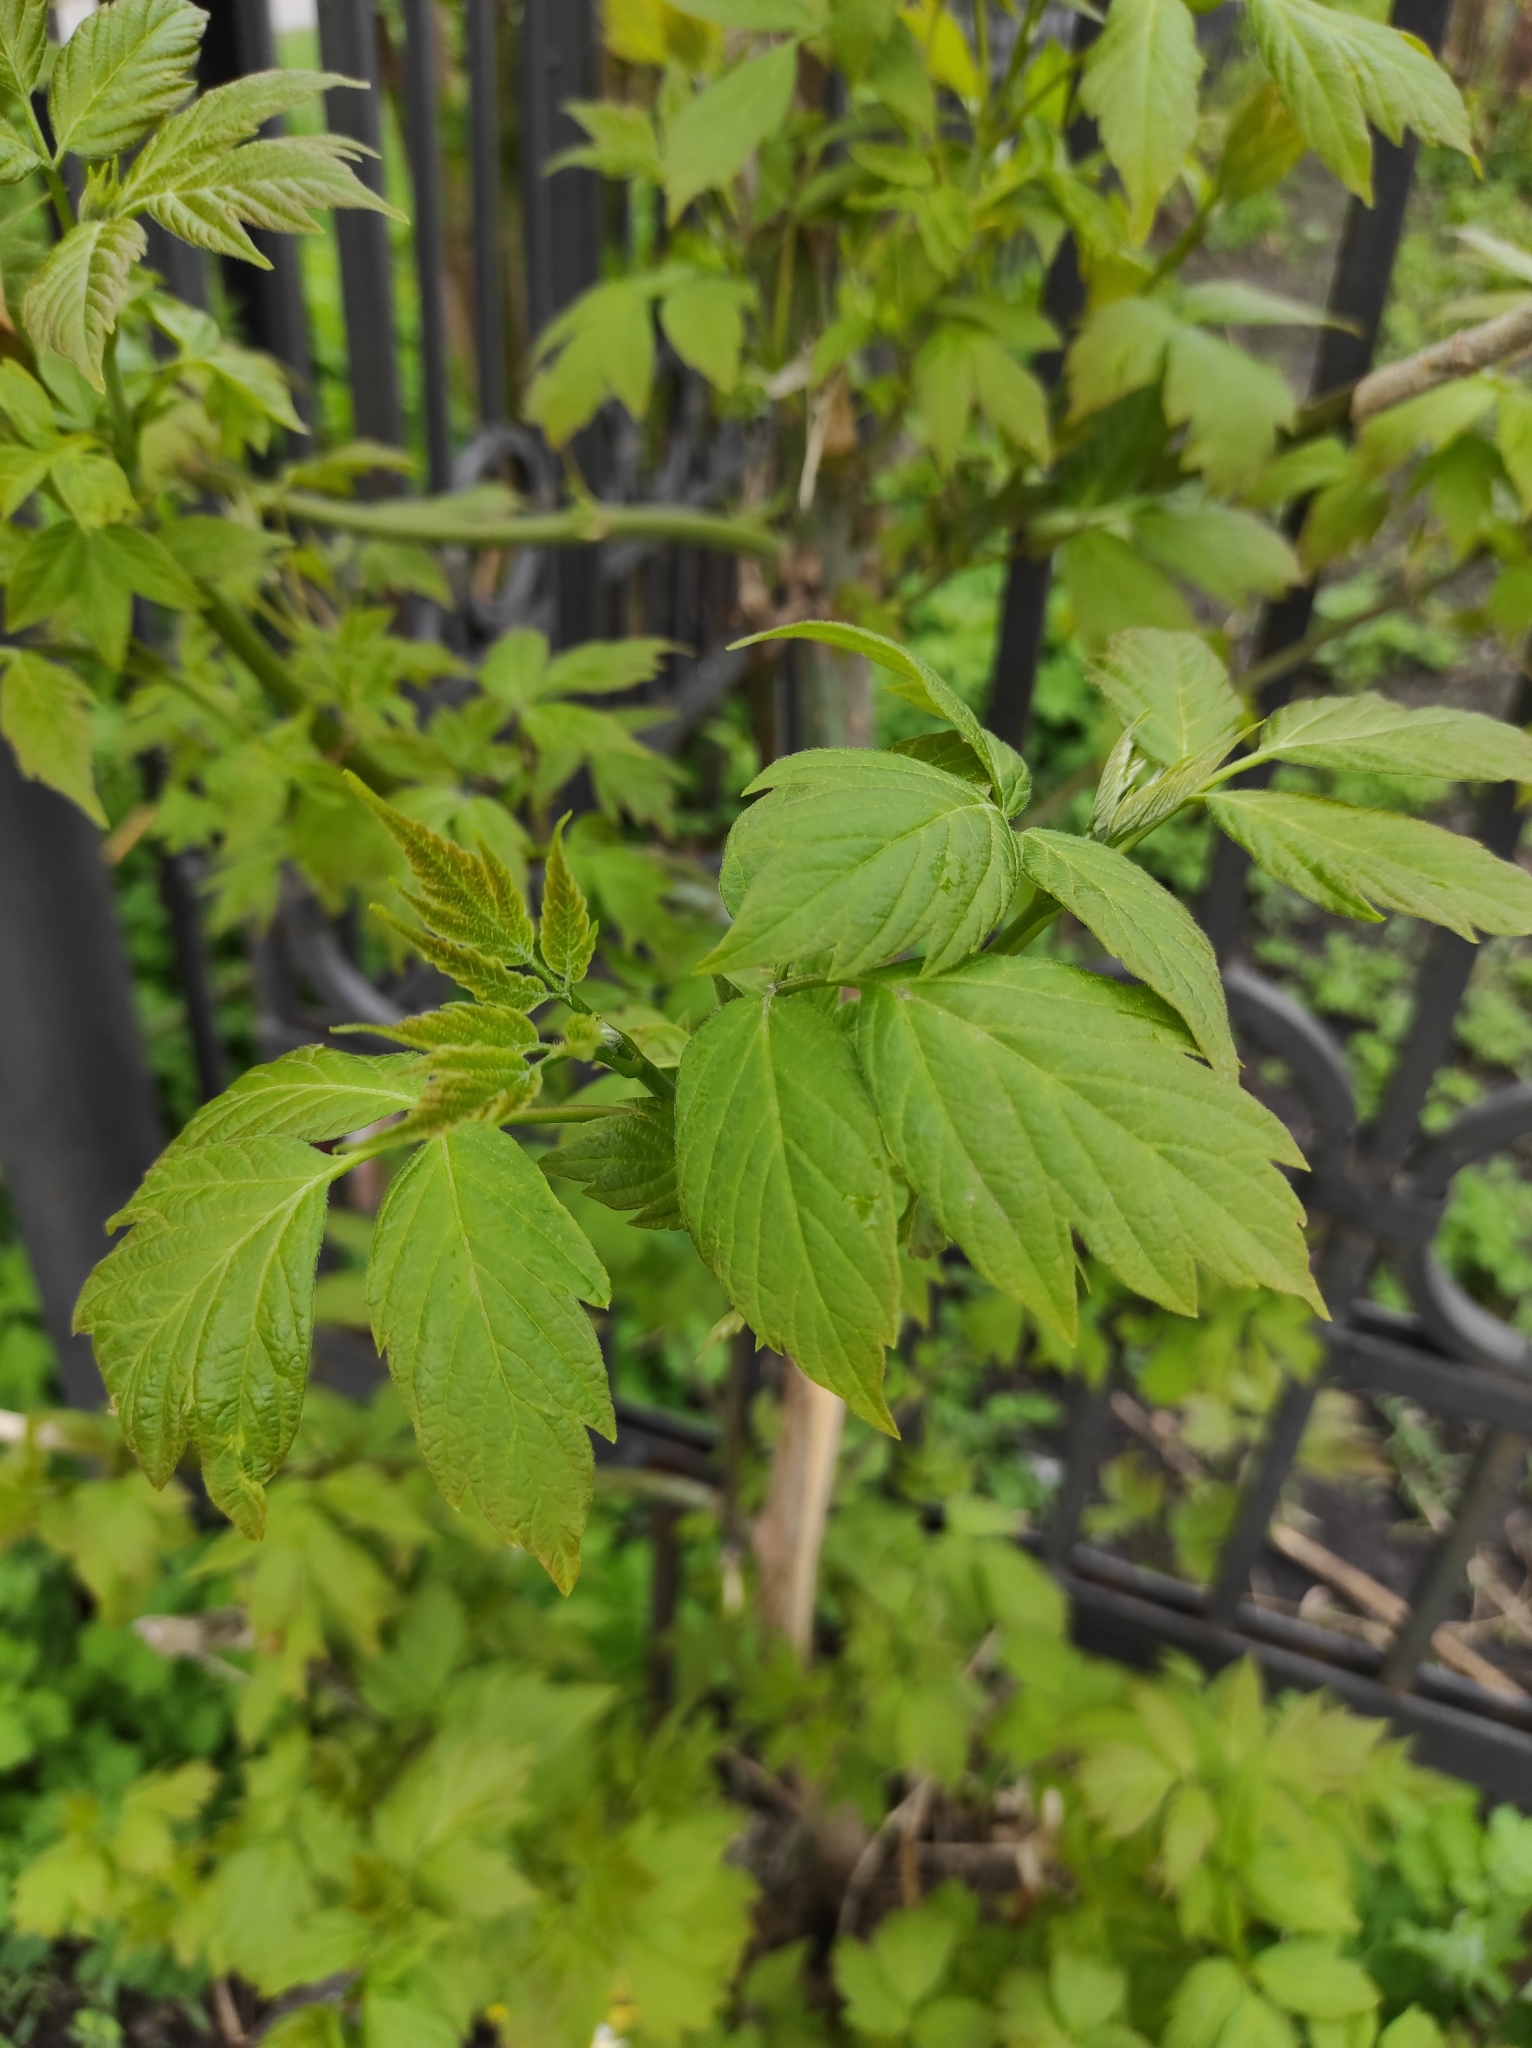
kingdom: Plantae
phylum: Tracheophyta
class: Magnoliopsida
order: Sapindales
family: Sapindaceae
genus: Acer
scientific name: Acer negundo
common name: Ashleaf maple
